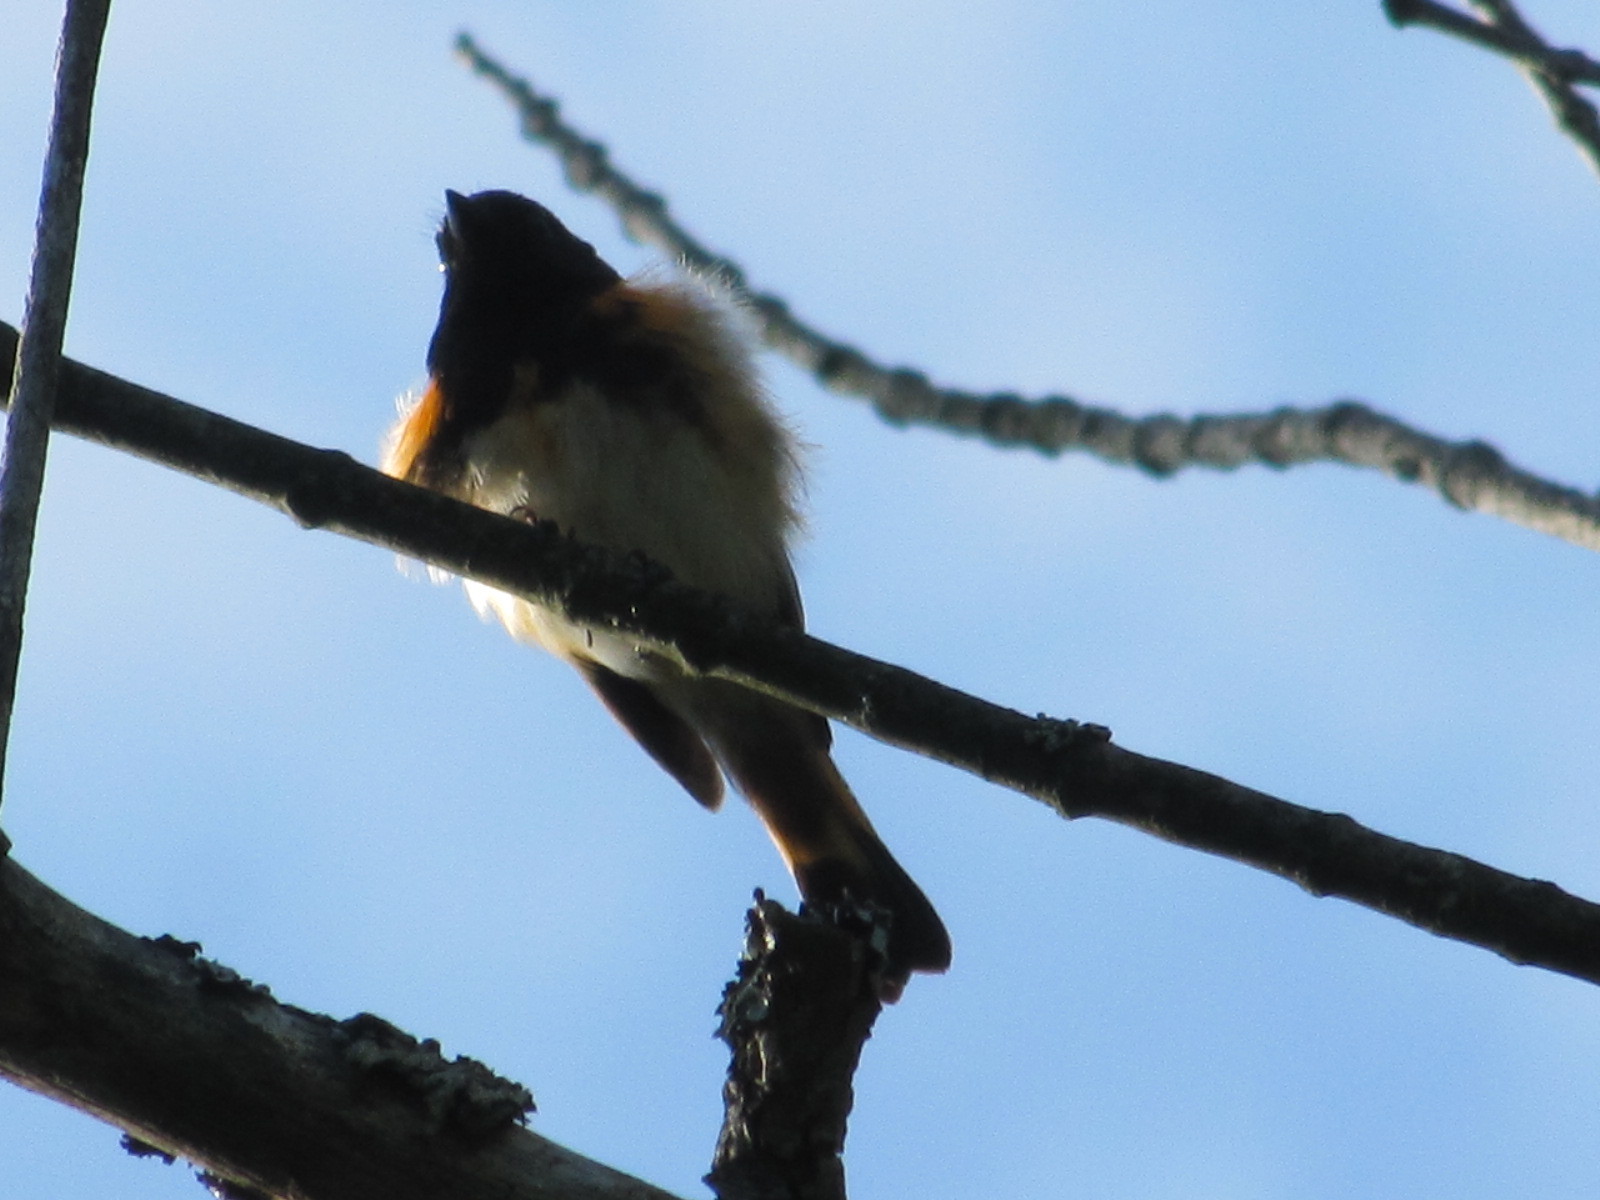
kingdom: Animalia
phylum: Chordata
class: Aves
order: Passeriformes
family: Parulidae
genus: Setophaga
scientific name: Setophaga ruticilla
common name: American redstart
